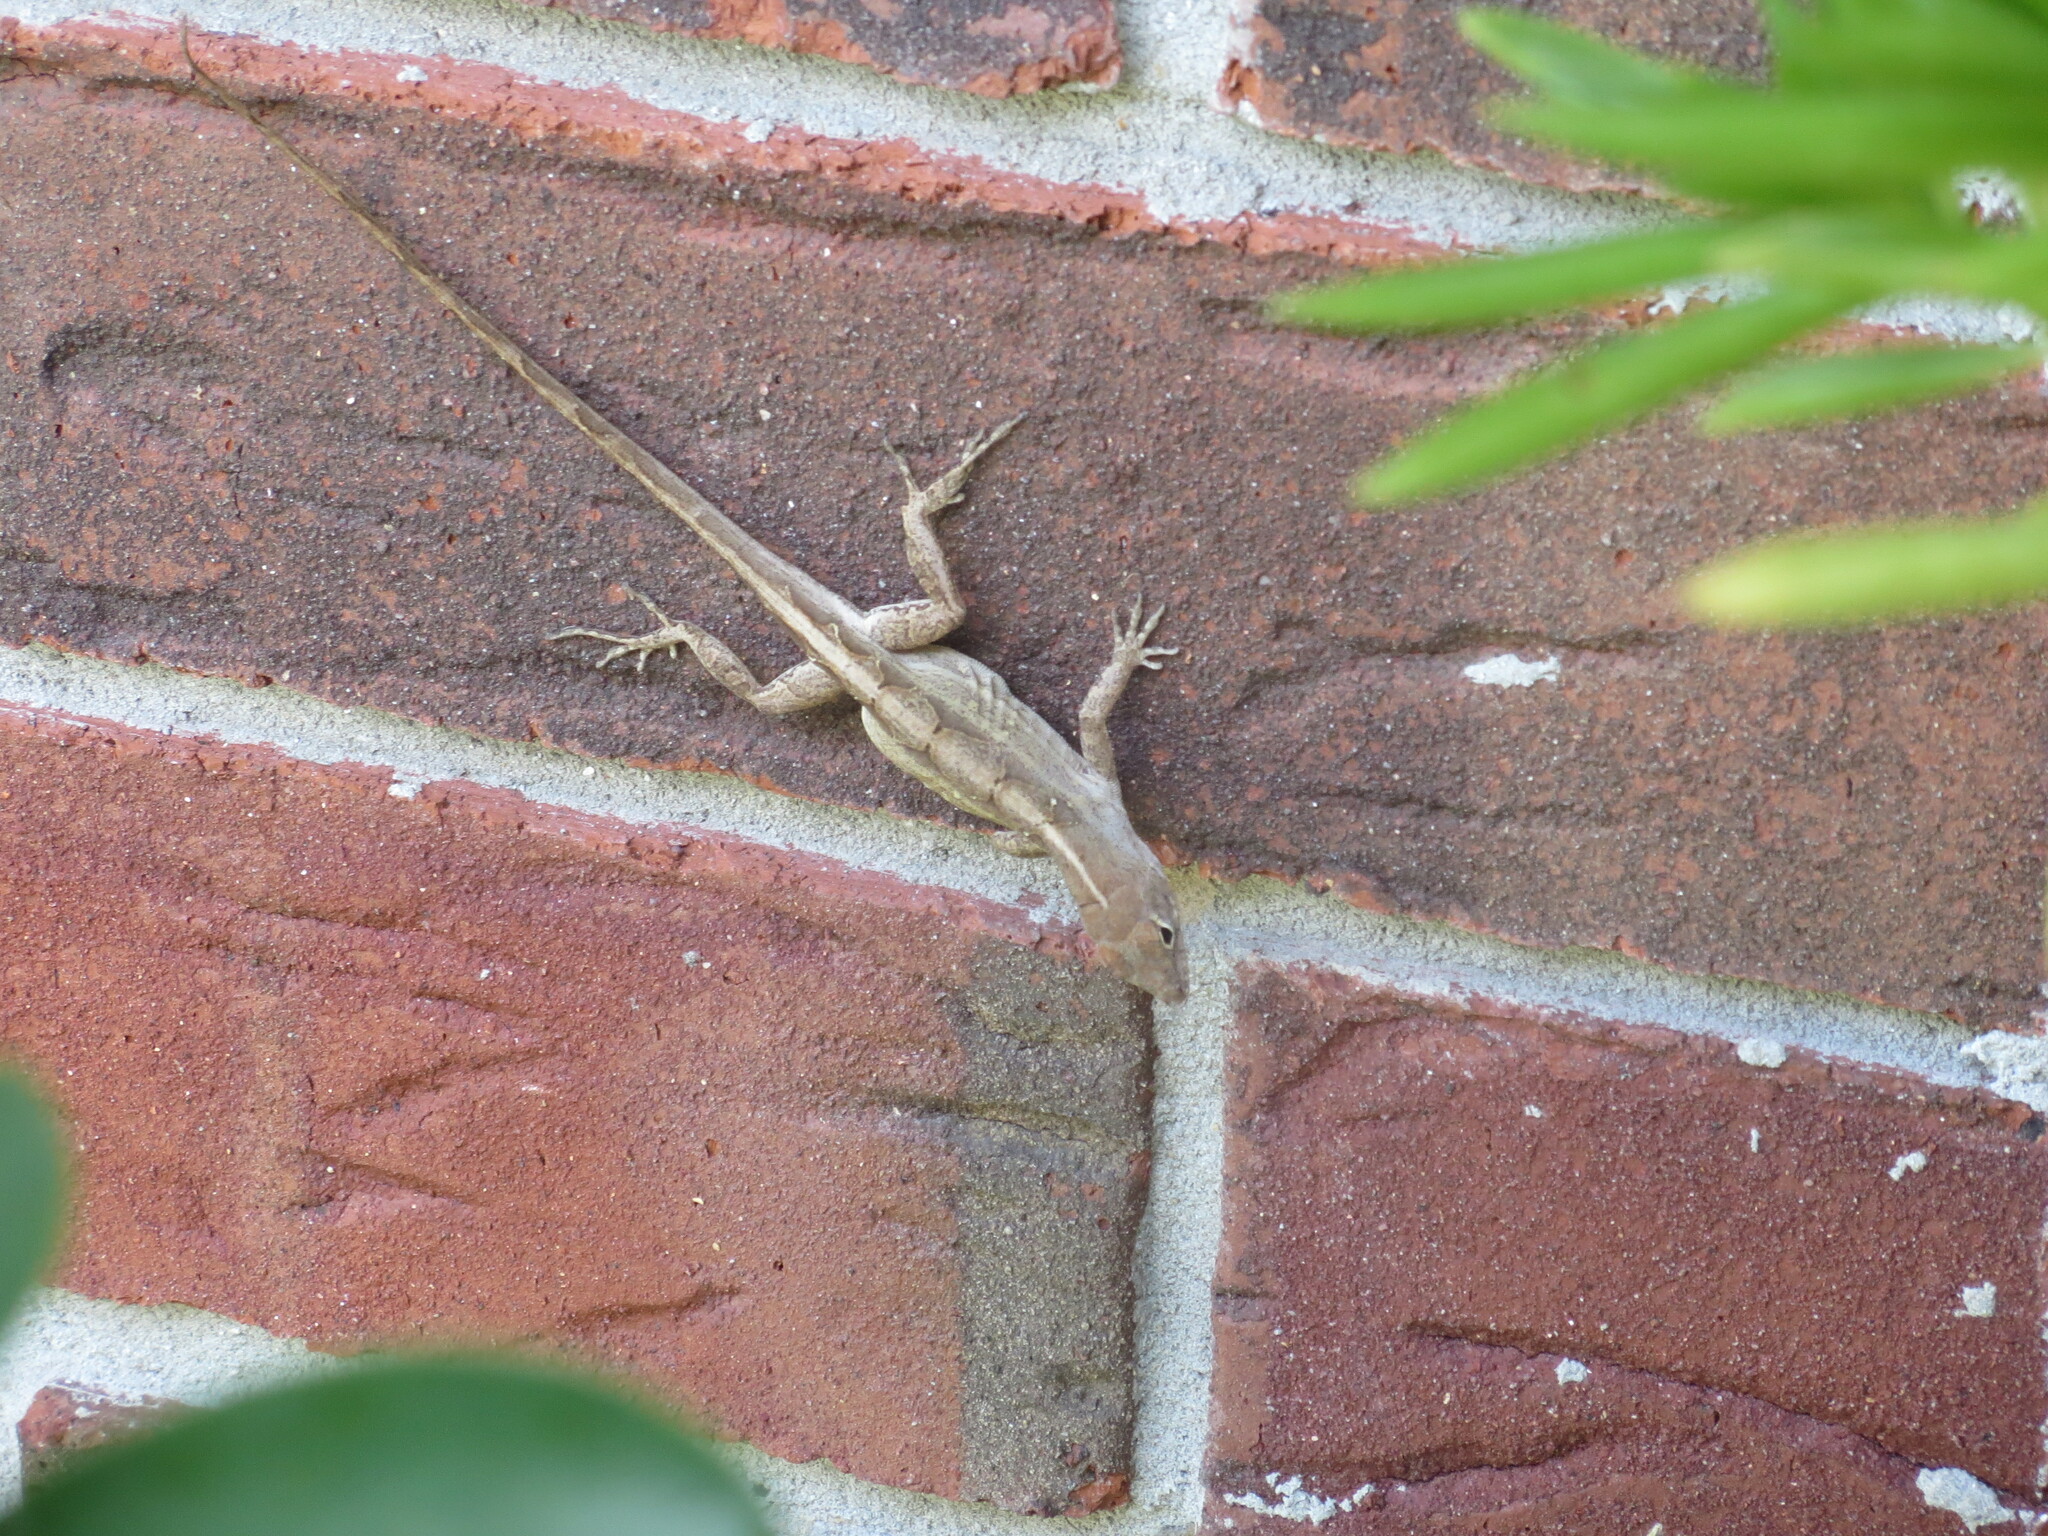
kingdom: Animalia
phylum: Chordata
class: Squamata
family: Dactyloidae
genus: Anolis
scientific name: Anolis sagrei
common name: Brown anole
